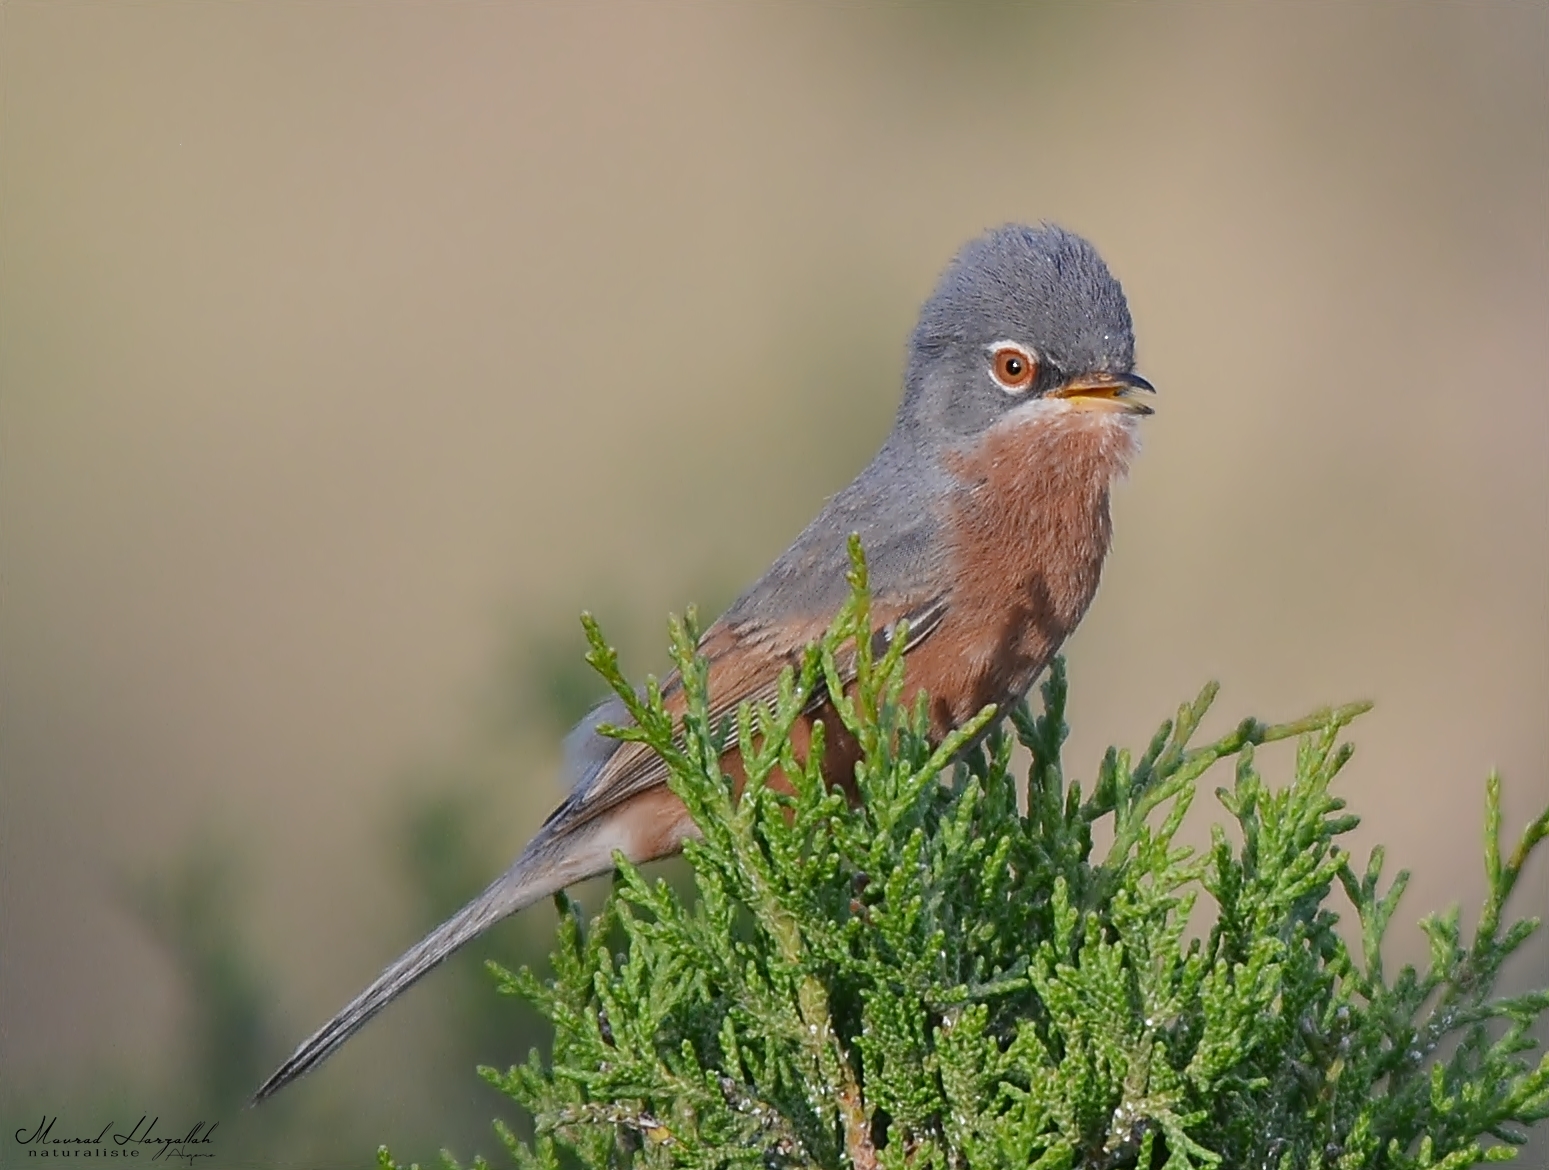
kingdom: Animalia
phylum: Chordata
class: Aves
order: Passeriformes
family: Sylviidae
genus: Sylvia
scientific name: Sylvia deserticola
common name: Tristram's warbler
